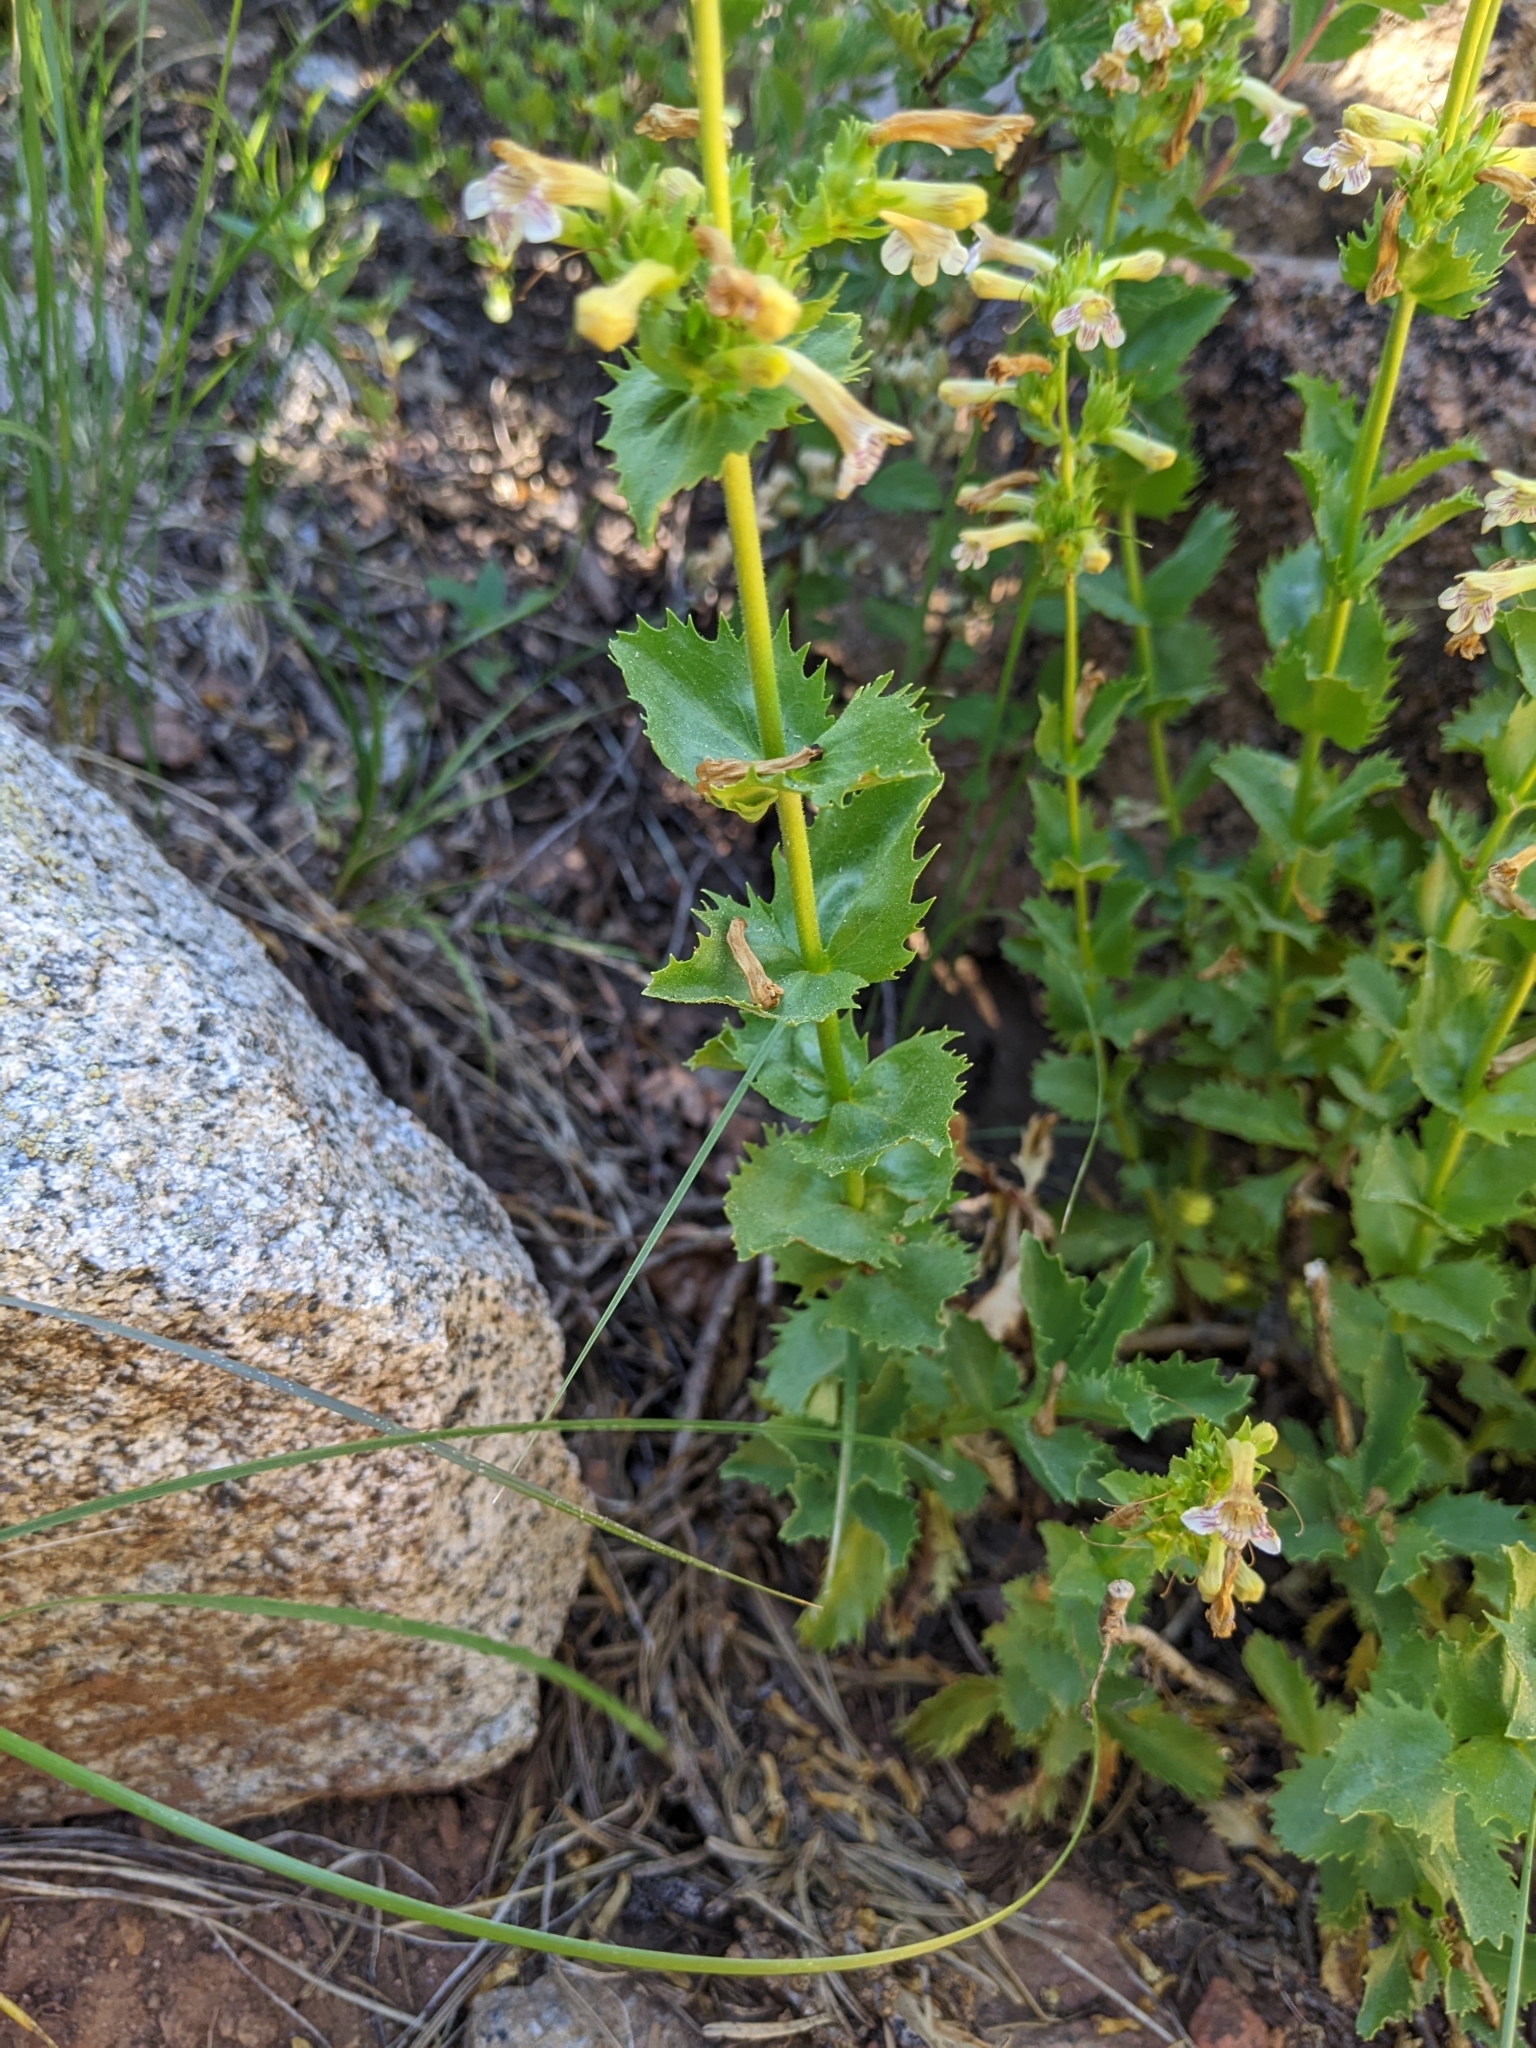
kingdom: Plantae
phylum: Tracheophyta
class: Magnoliopsida
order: Lamiales
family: Plantaginaceae
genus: Penstemon
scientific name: Penstemon deustus
